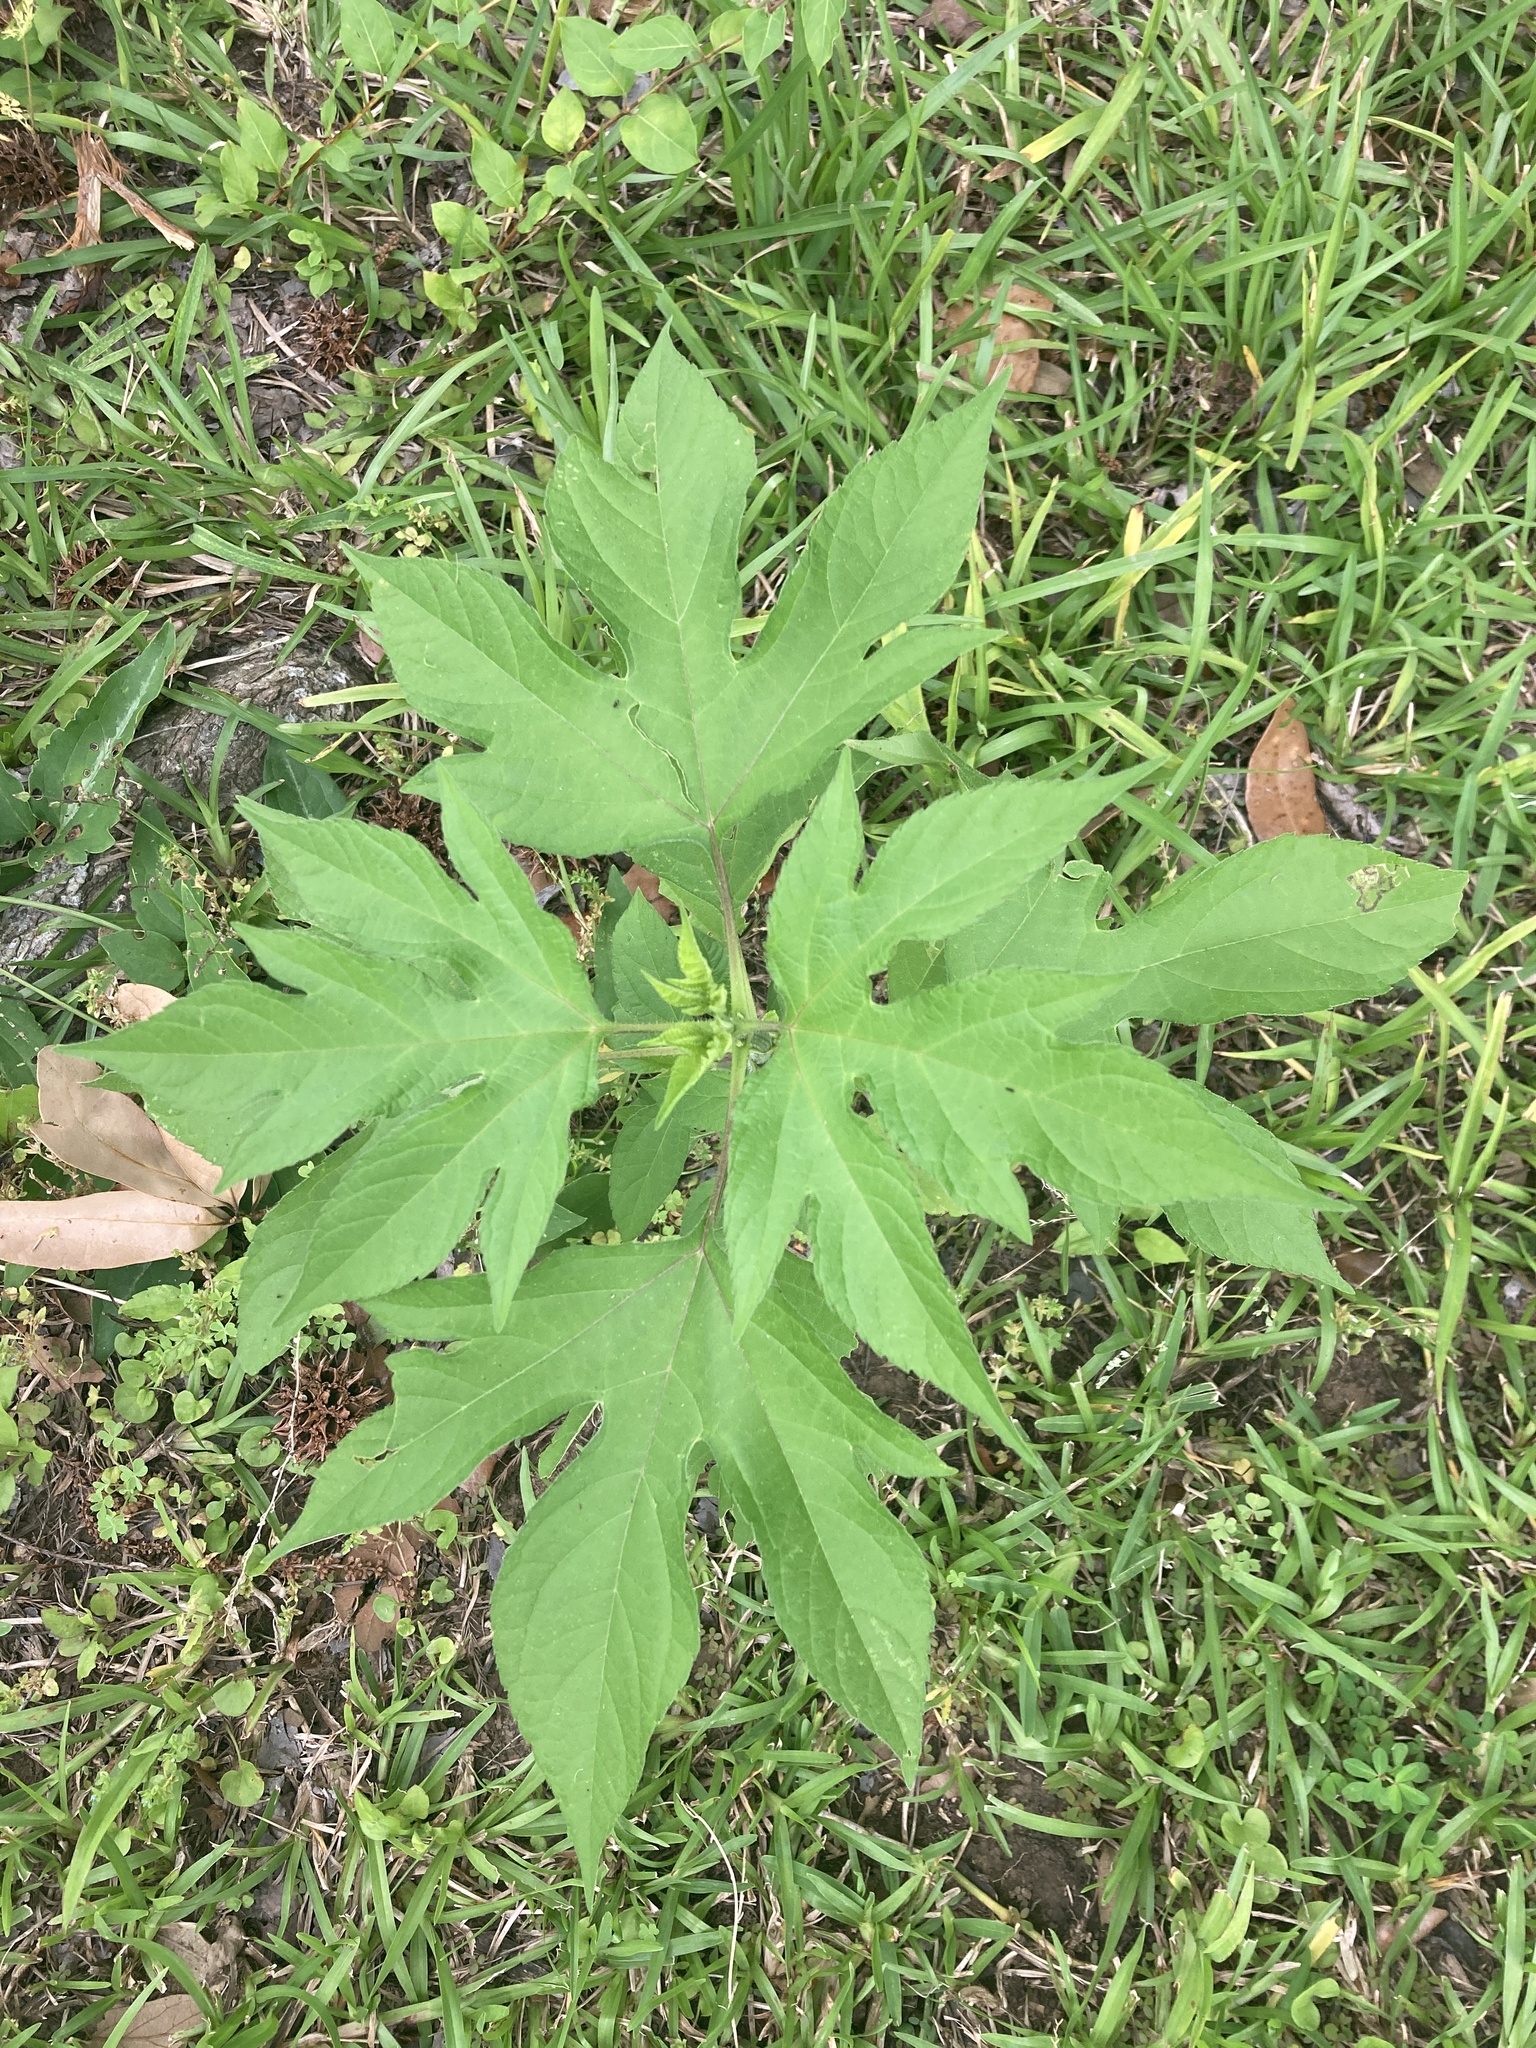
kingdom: Plantae
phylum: Tracheophyta
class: Magnoliopsida
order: Asterales
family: Asteraceae
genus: Ambrosia
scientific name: Ambrosia trifida
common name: Giant ragweed
